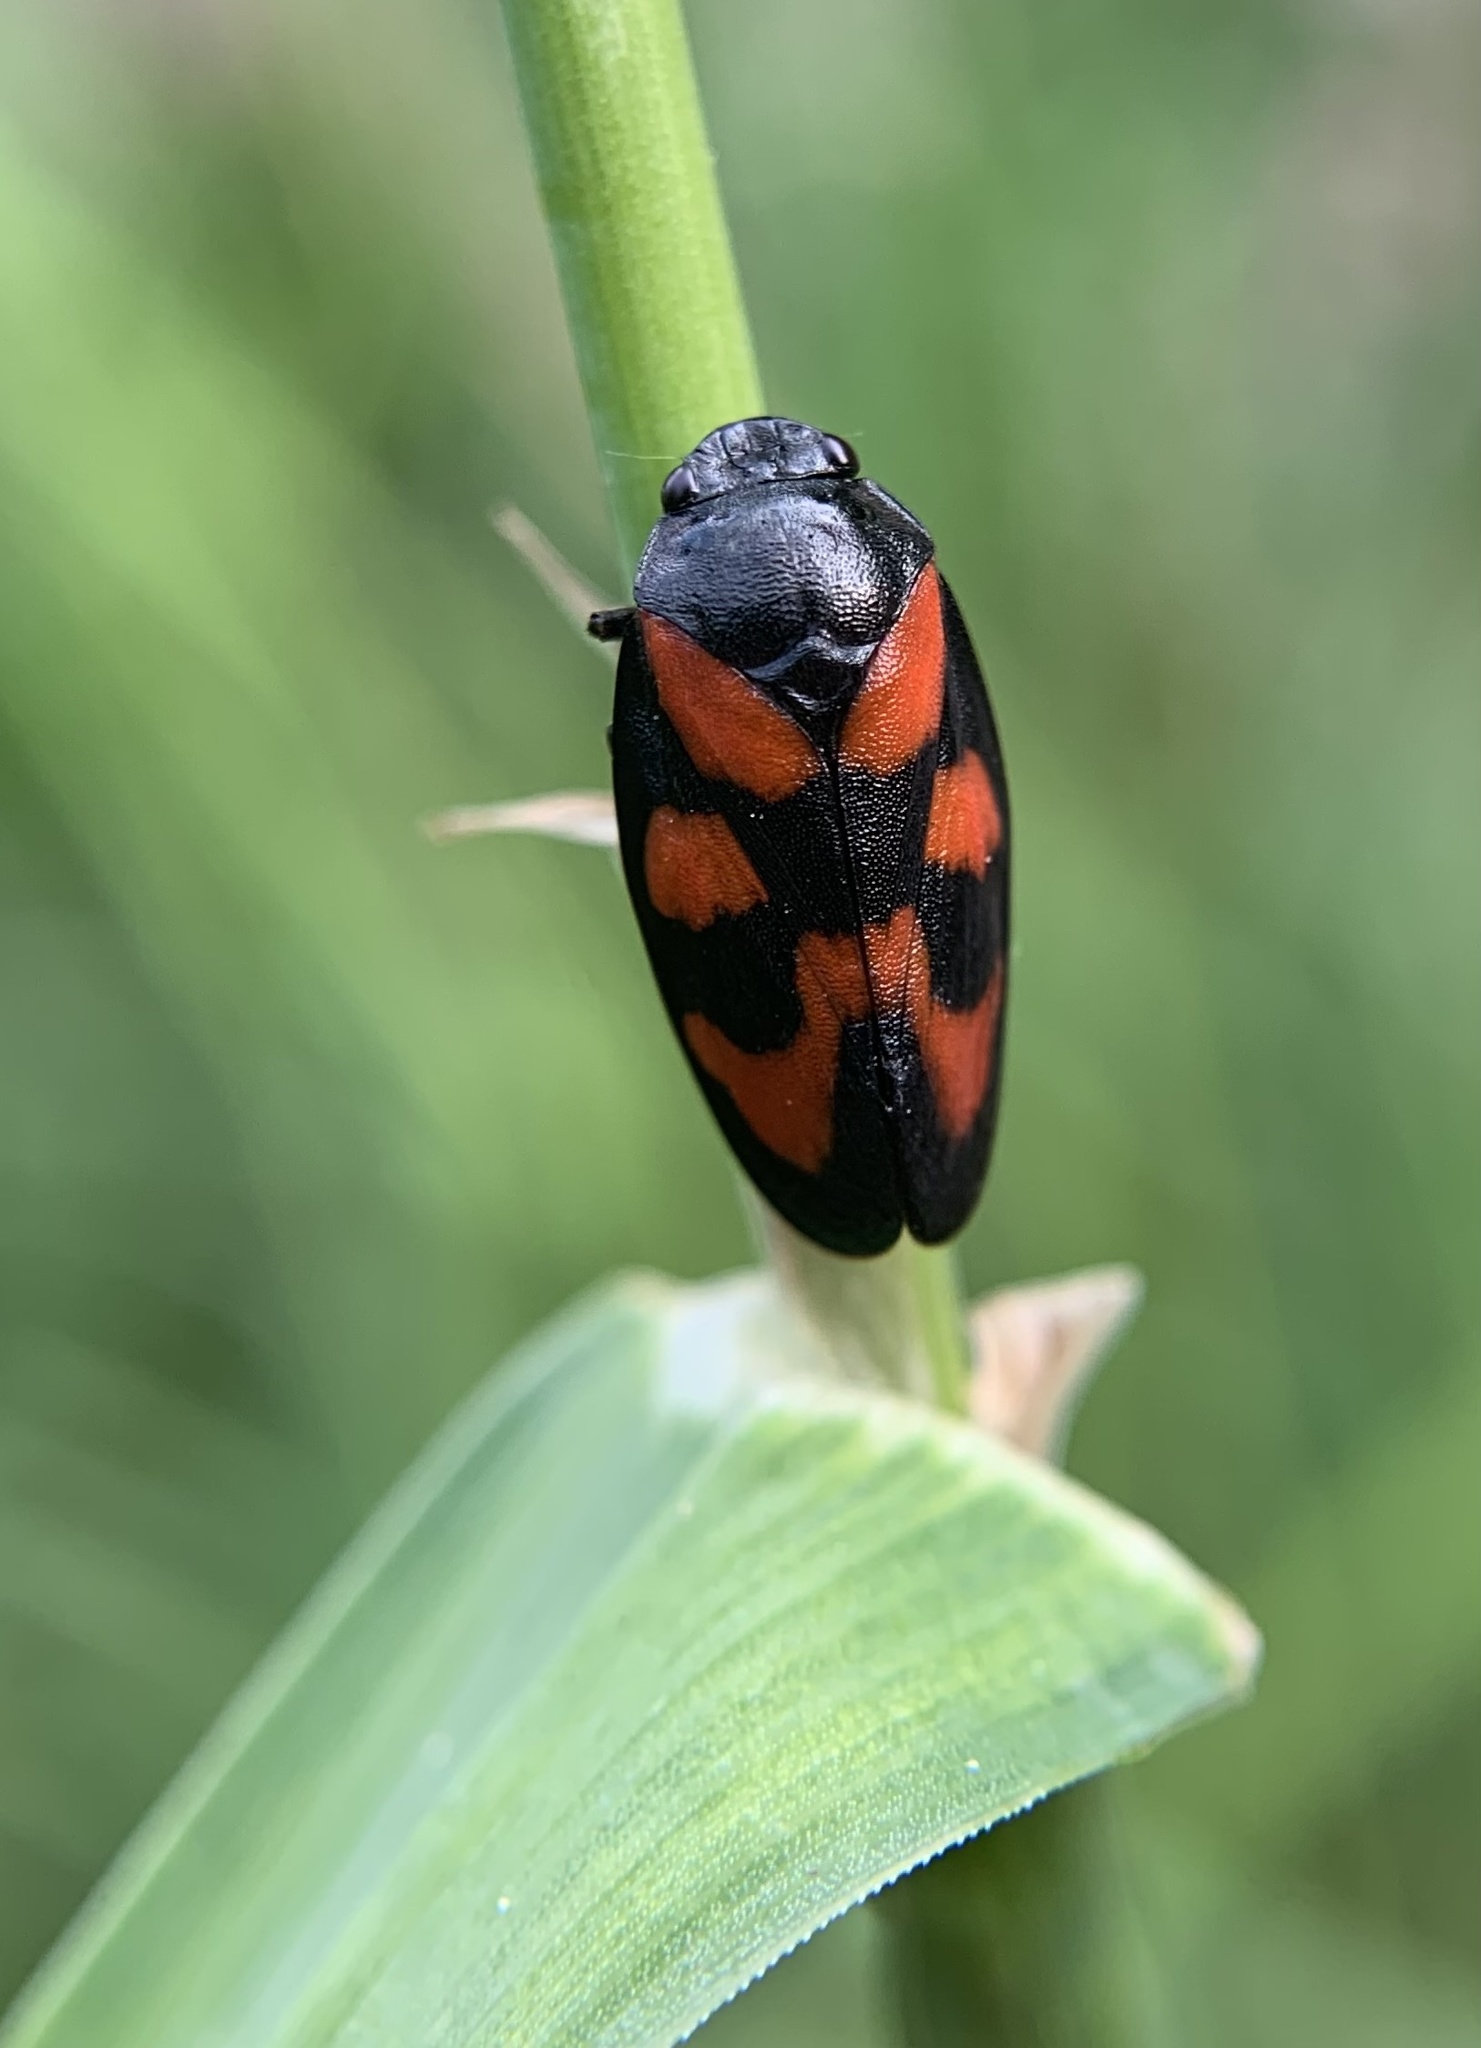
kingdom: Animalia
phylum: Arthropoda
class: Insecta
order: Hemiptera
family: Cercopidae
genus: Cercopis
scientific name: Cercopis vulnerata
